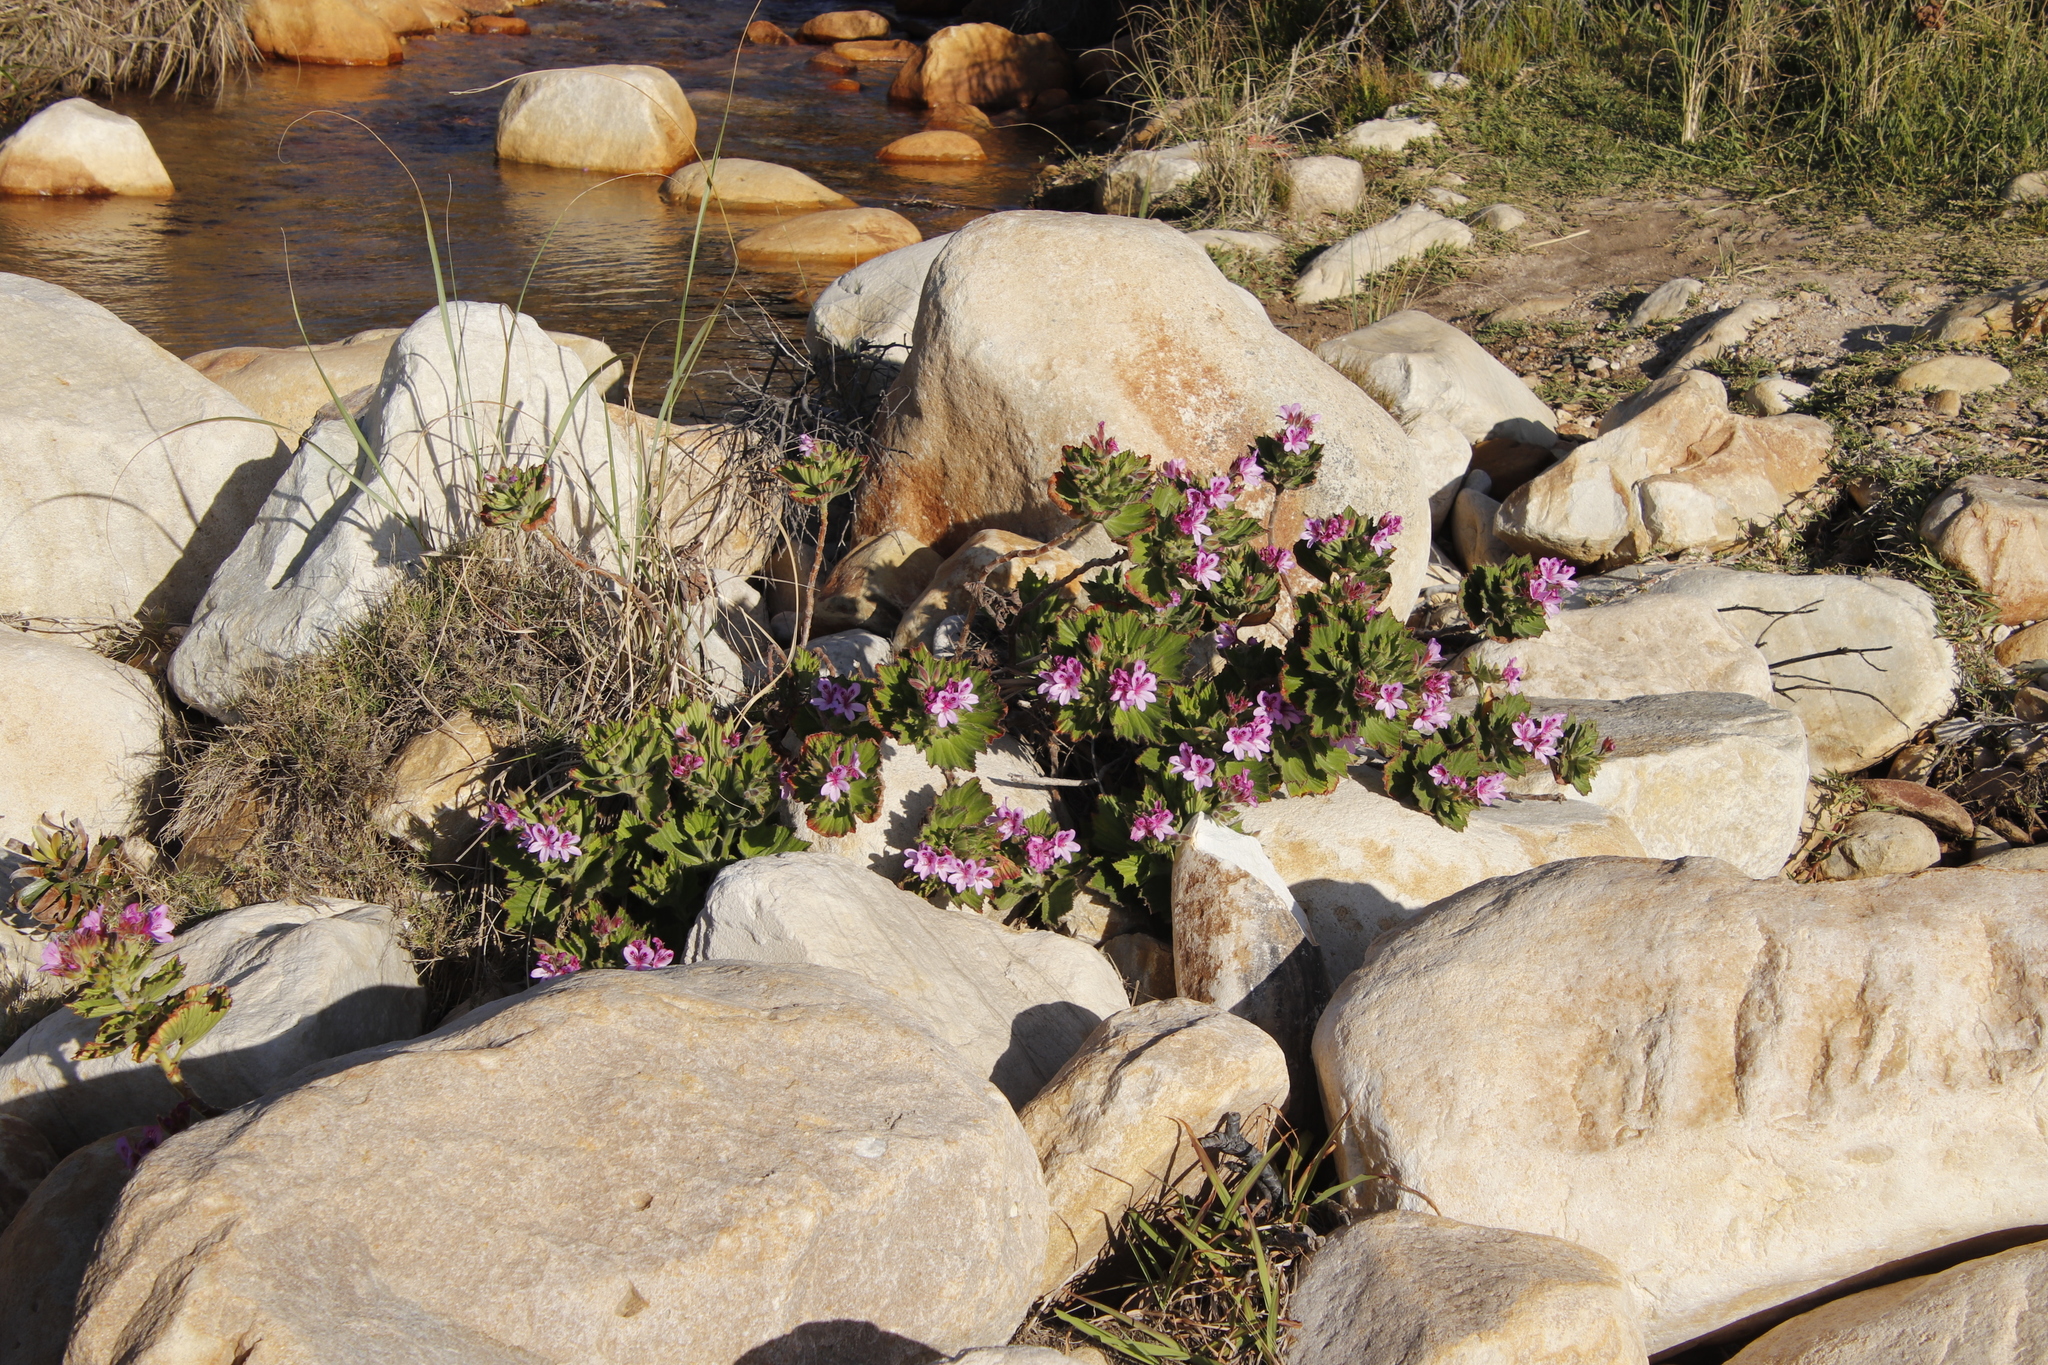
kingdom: Plantae
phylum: Tracheophyta
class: Magnoliopsida
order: Geraniales
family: Geraniaceae
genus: Pelargonium
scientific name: Pelargonium cucullatum
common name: Tree pelargonium
